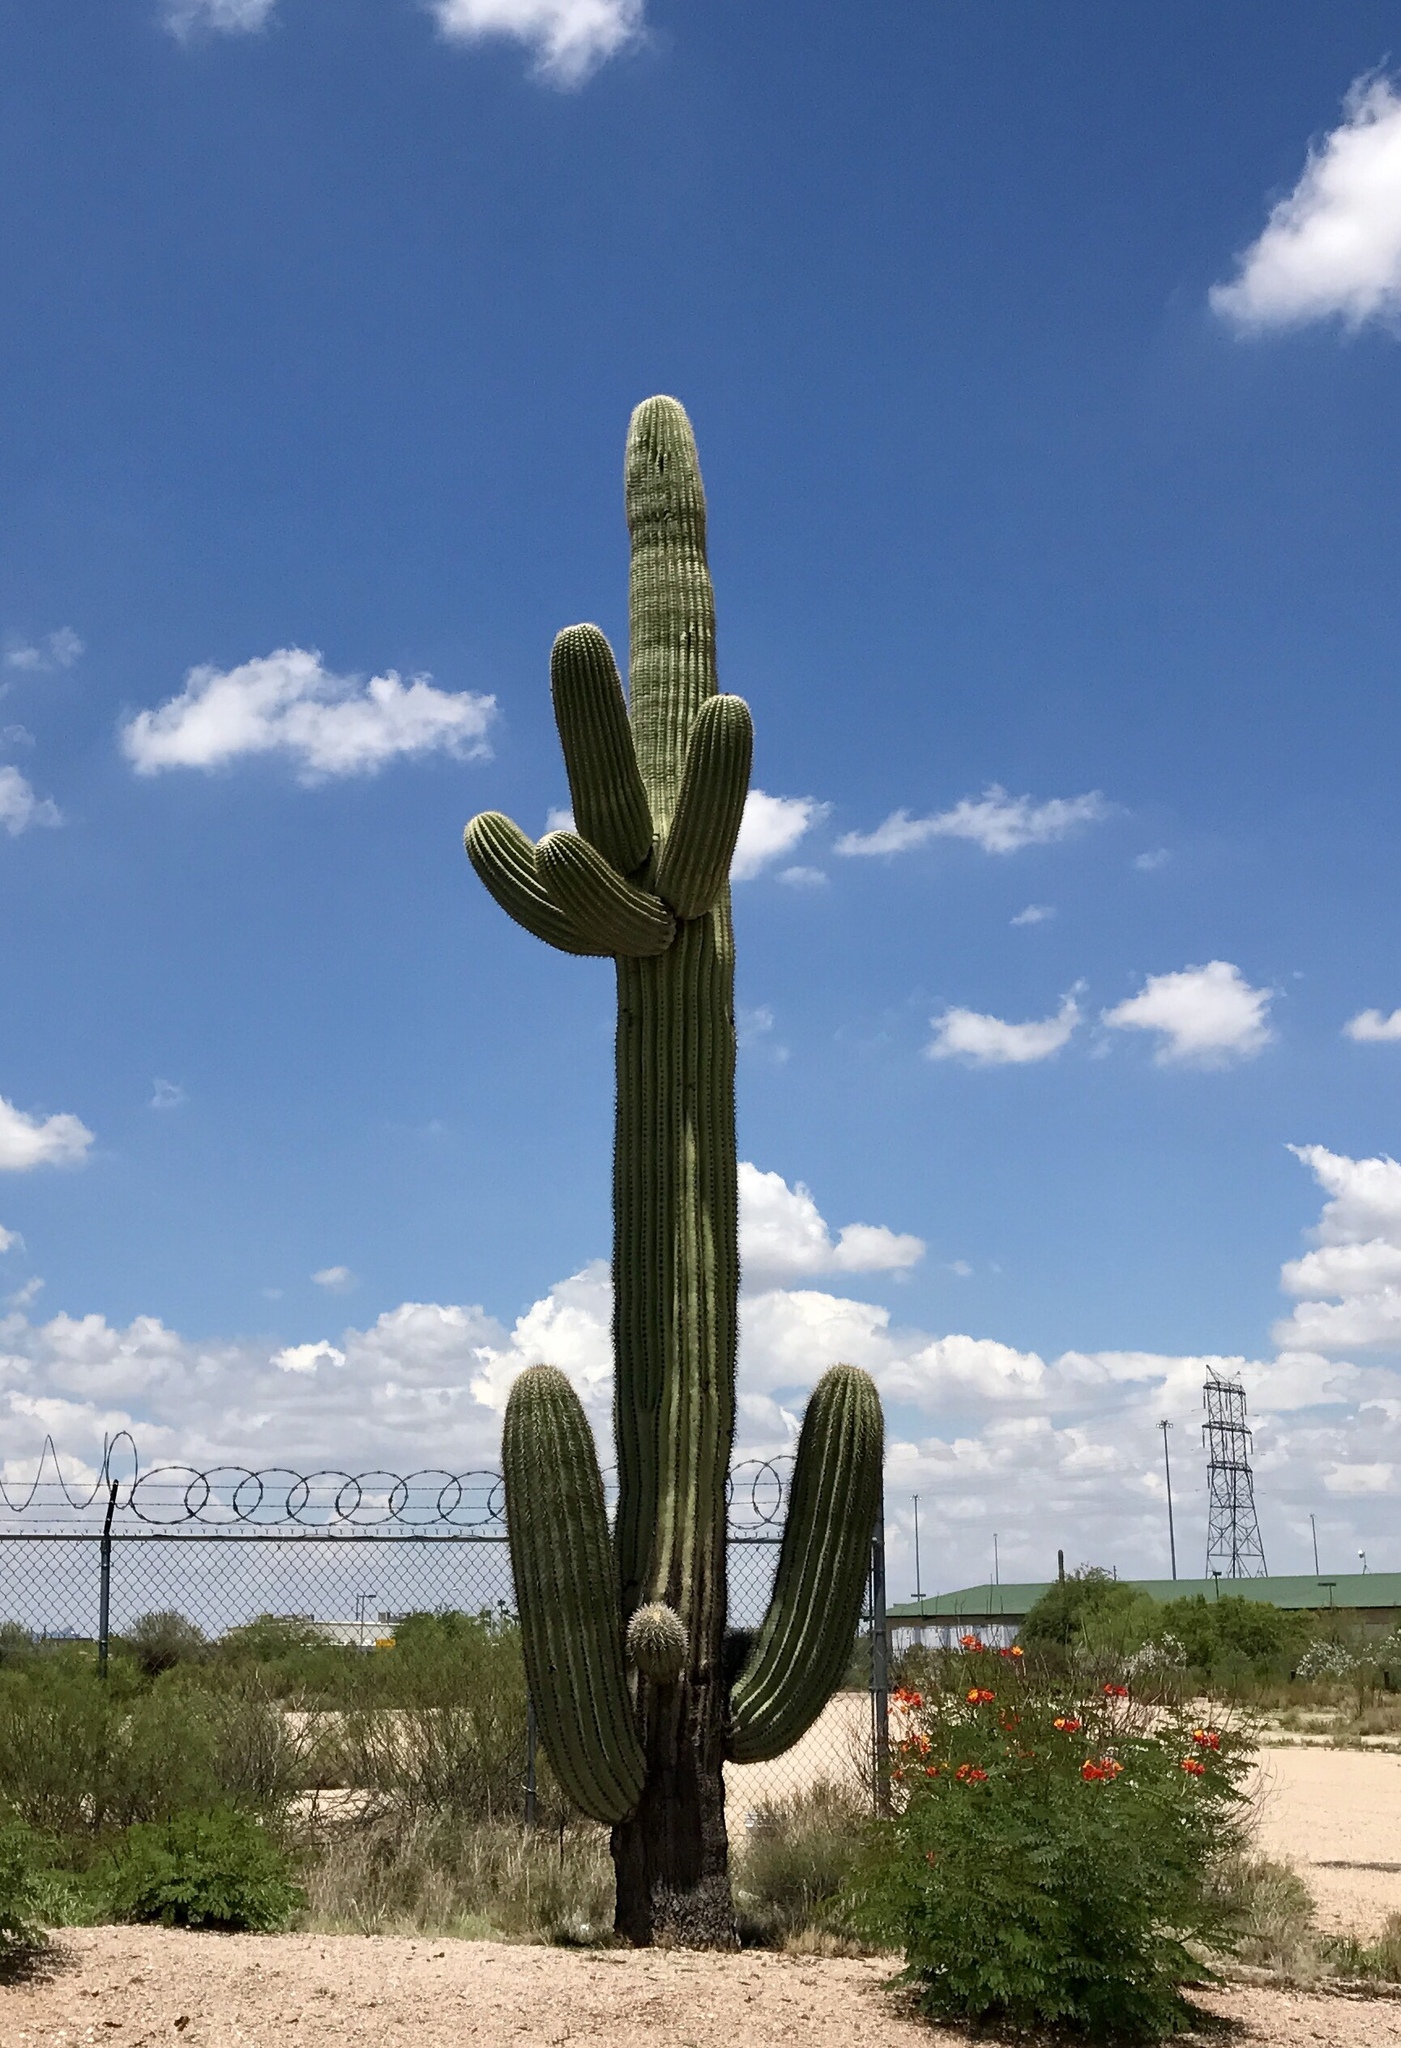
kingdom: Plantae
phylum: Tracheophyta
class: Magnoliopsida
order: Caryophyllales
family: Cactaceae
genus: Carnegiea
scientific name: Carnegiea gigantea
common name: Saguaro
